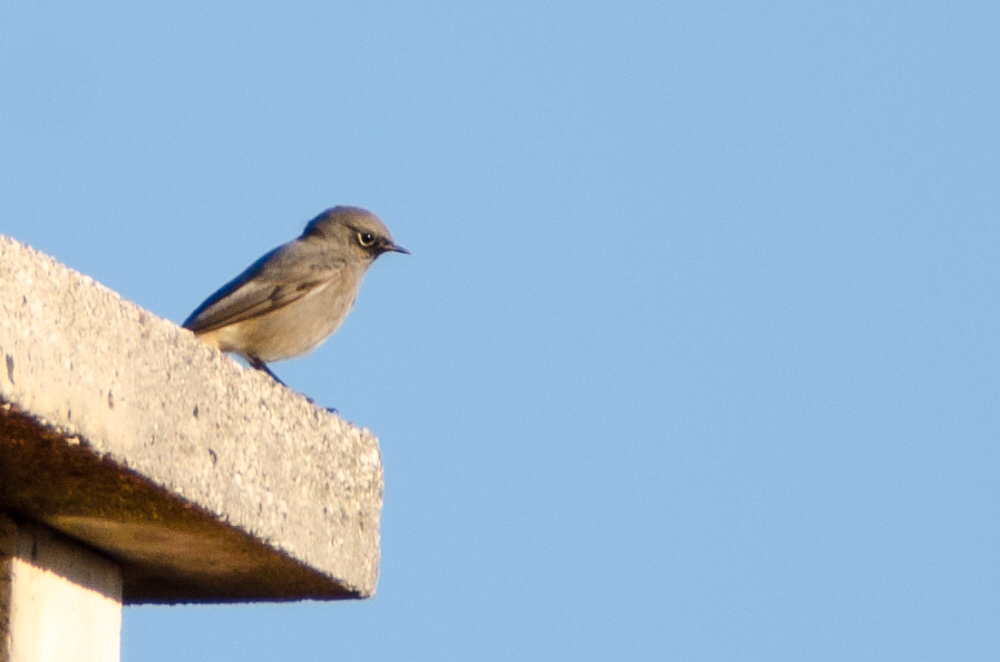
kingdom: Animalia
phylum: Chordata
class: Aves
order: Passeriformes
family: Muscicapidae
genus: Phoenicurus
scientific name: Phoenicurus ochruros
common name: Black redstart
